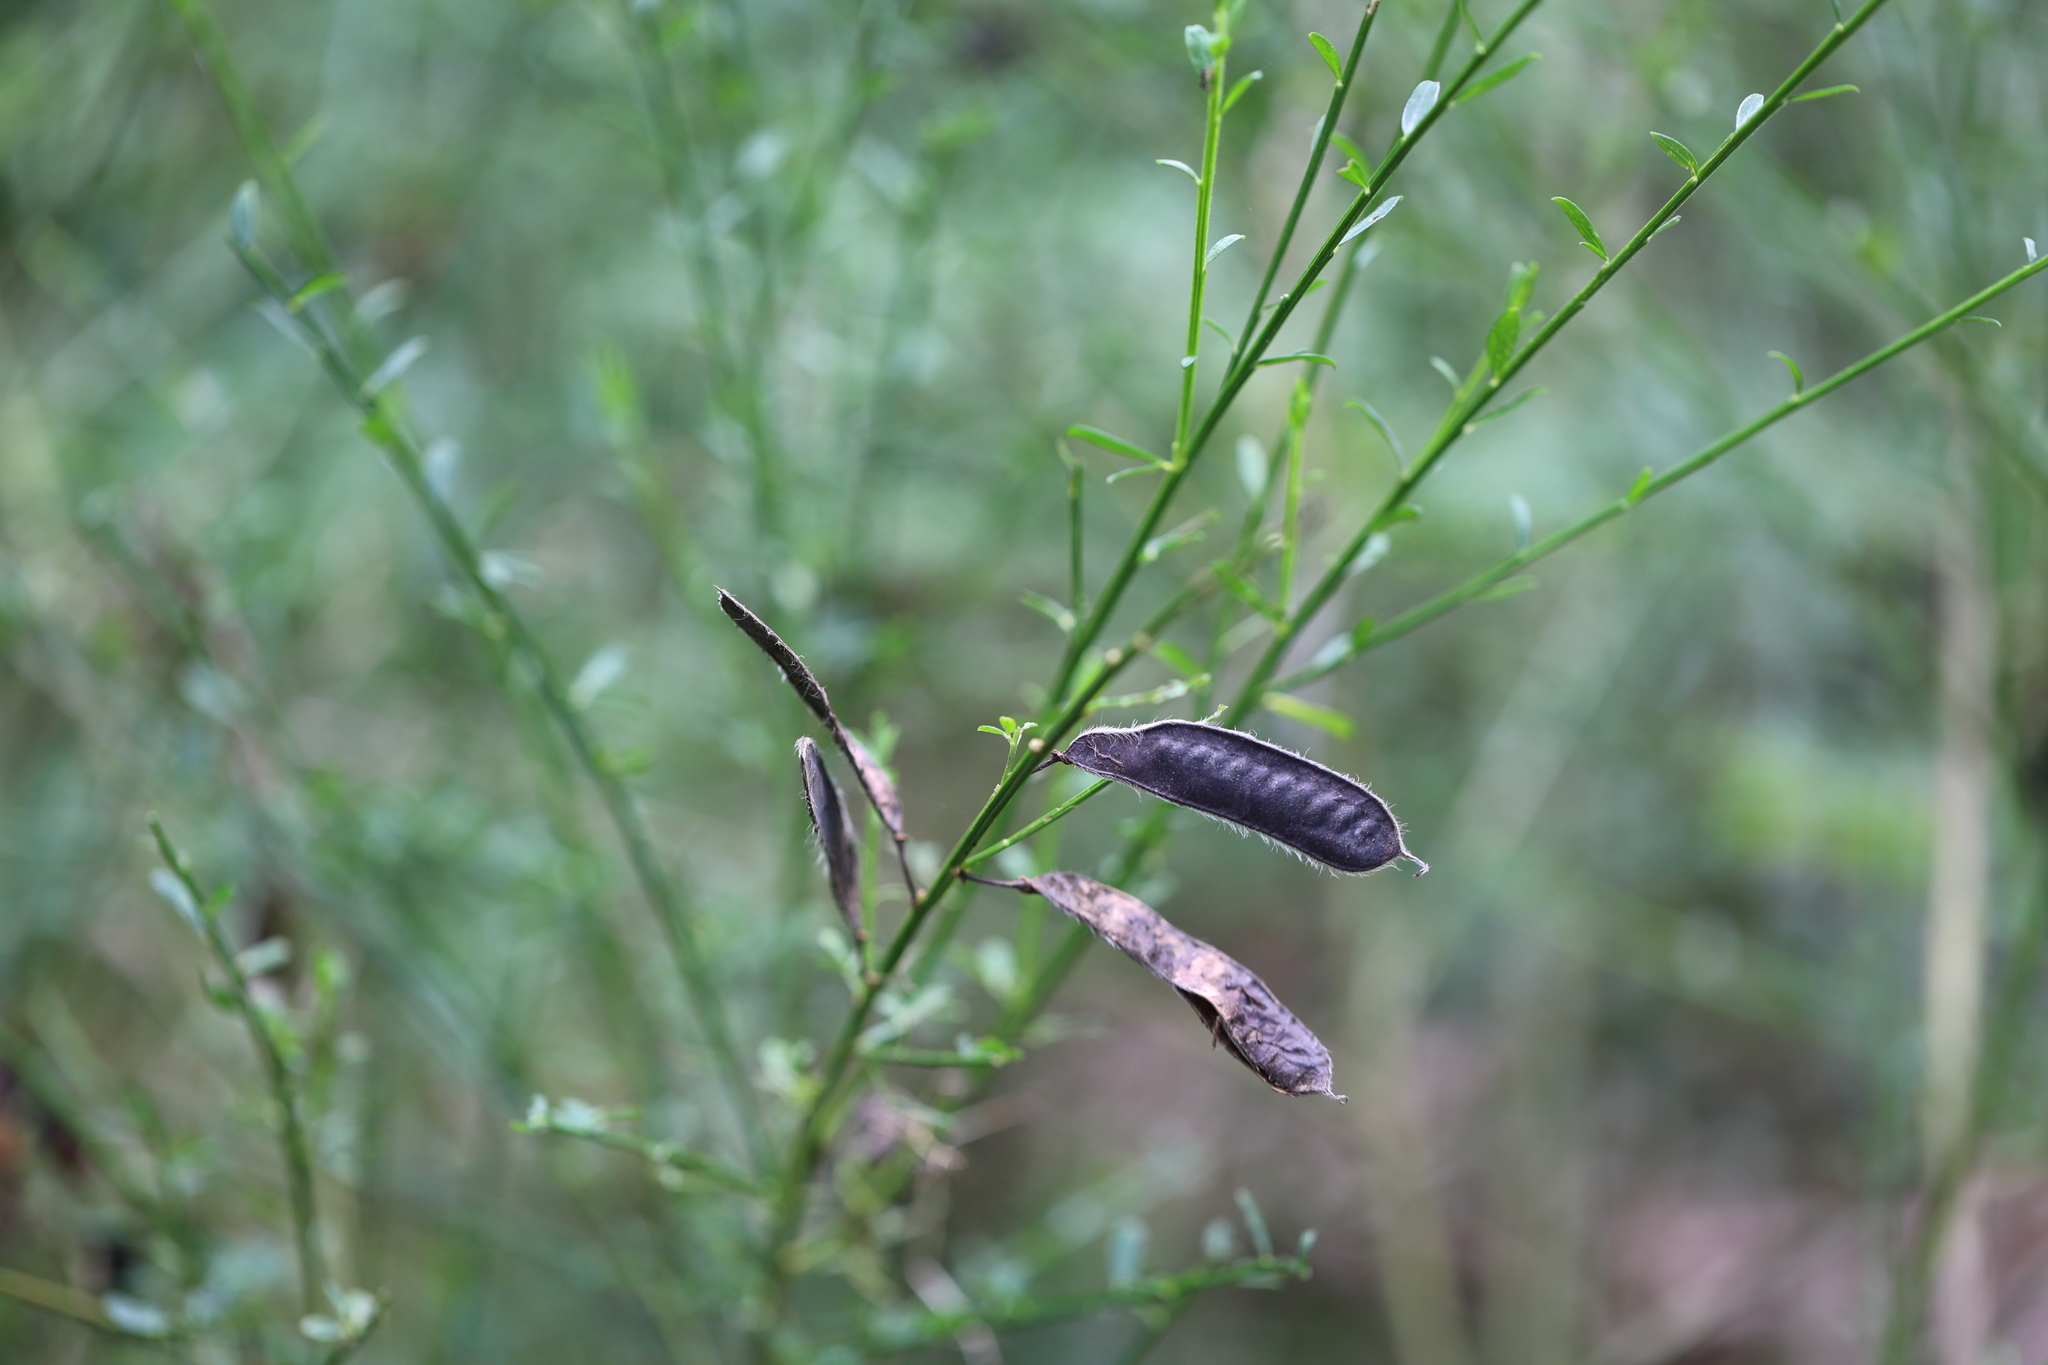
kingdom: Plantae
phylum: Tracheophyta
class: Magnoliopsida
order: Fabales
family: Fabaceae
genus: Cytisus
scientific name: Cytisus scoparius
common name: Scotch broom
